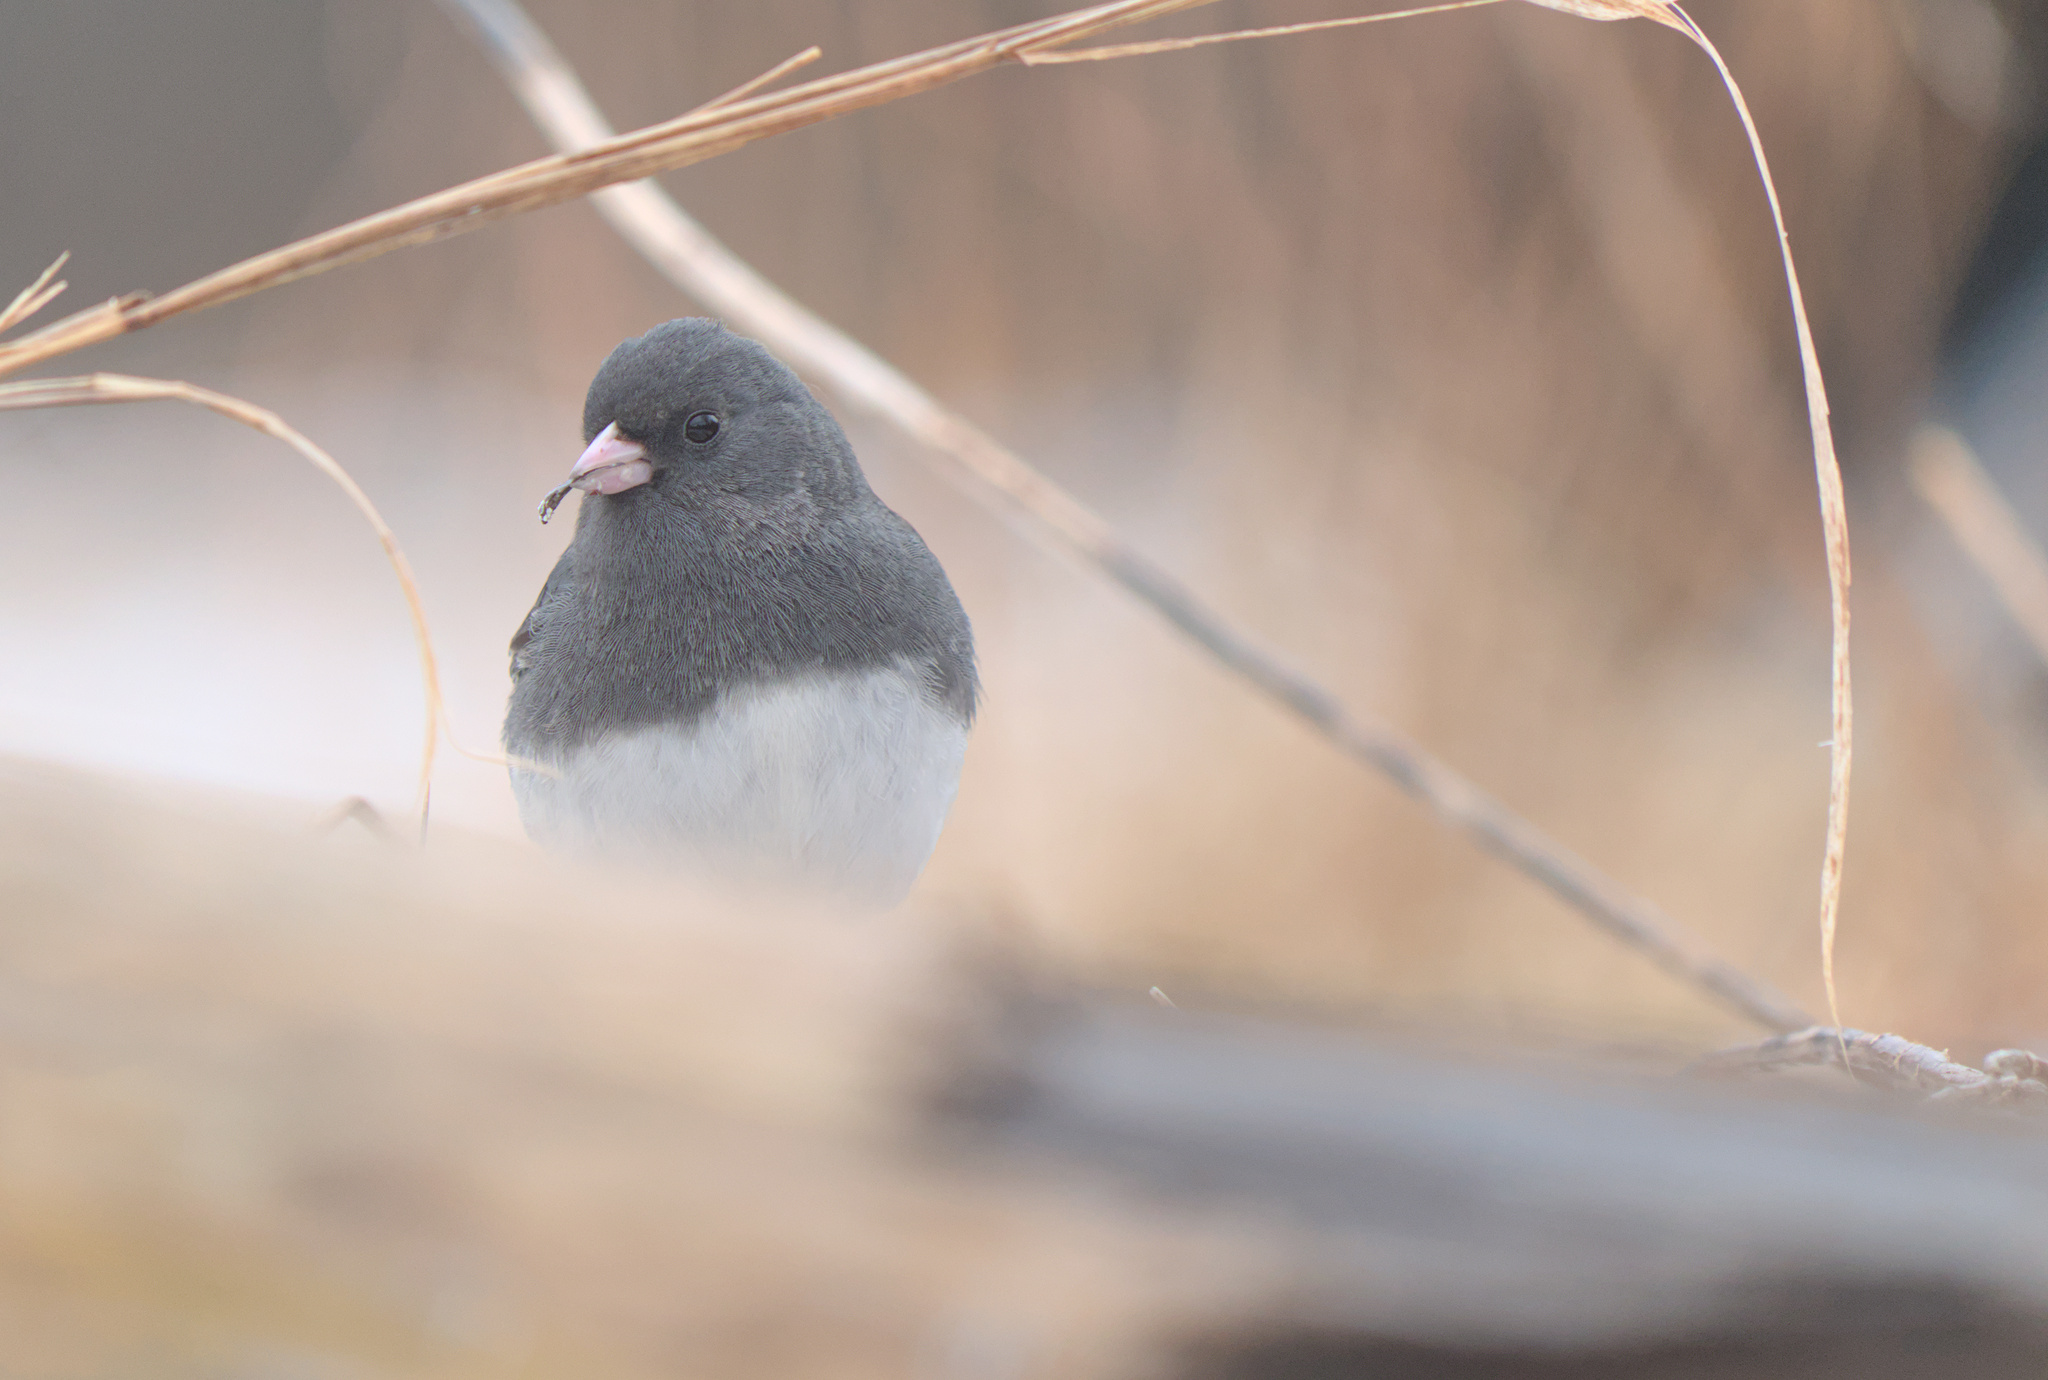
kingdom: Animalia
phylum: Chordata
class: Aves
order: Passeriformes
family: Passerellidae
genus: Junco
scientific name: Junco hyemalis
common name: Dark-eyed junco
